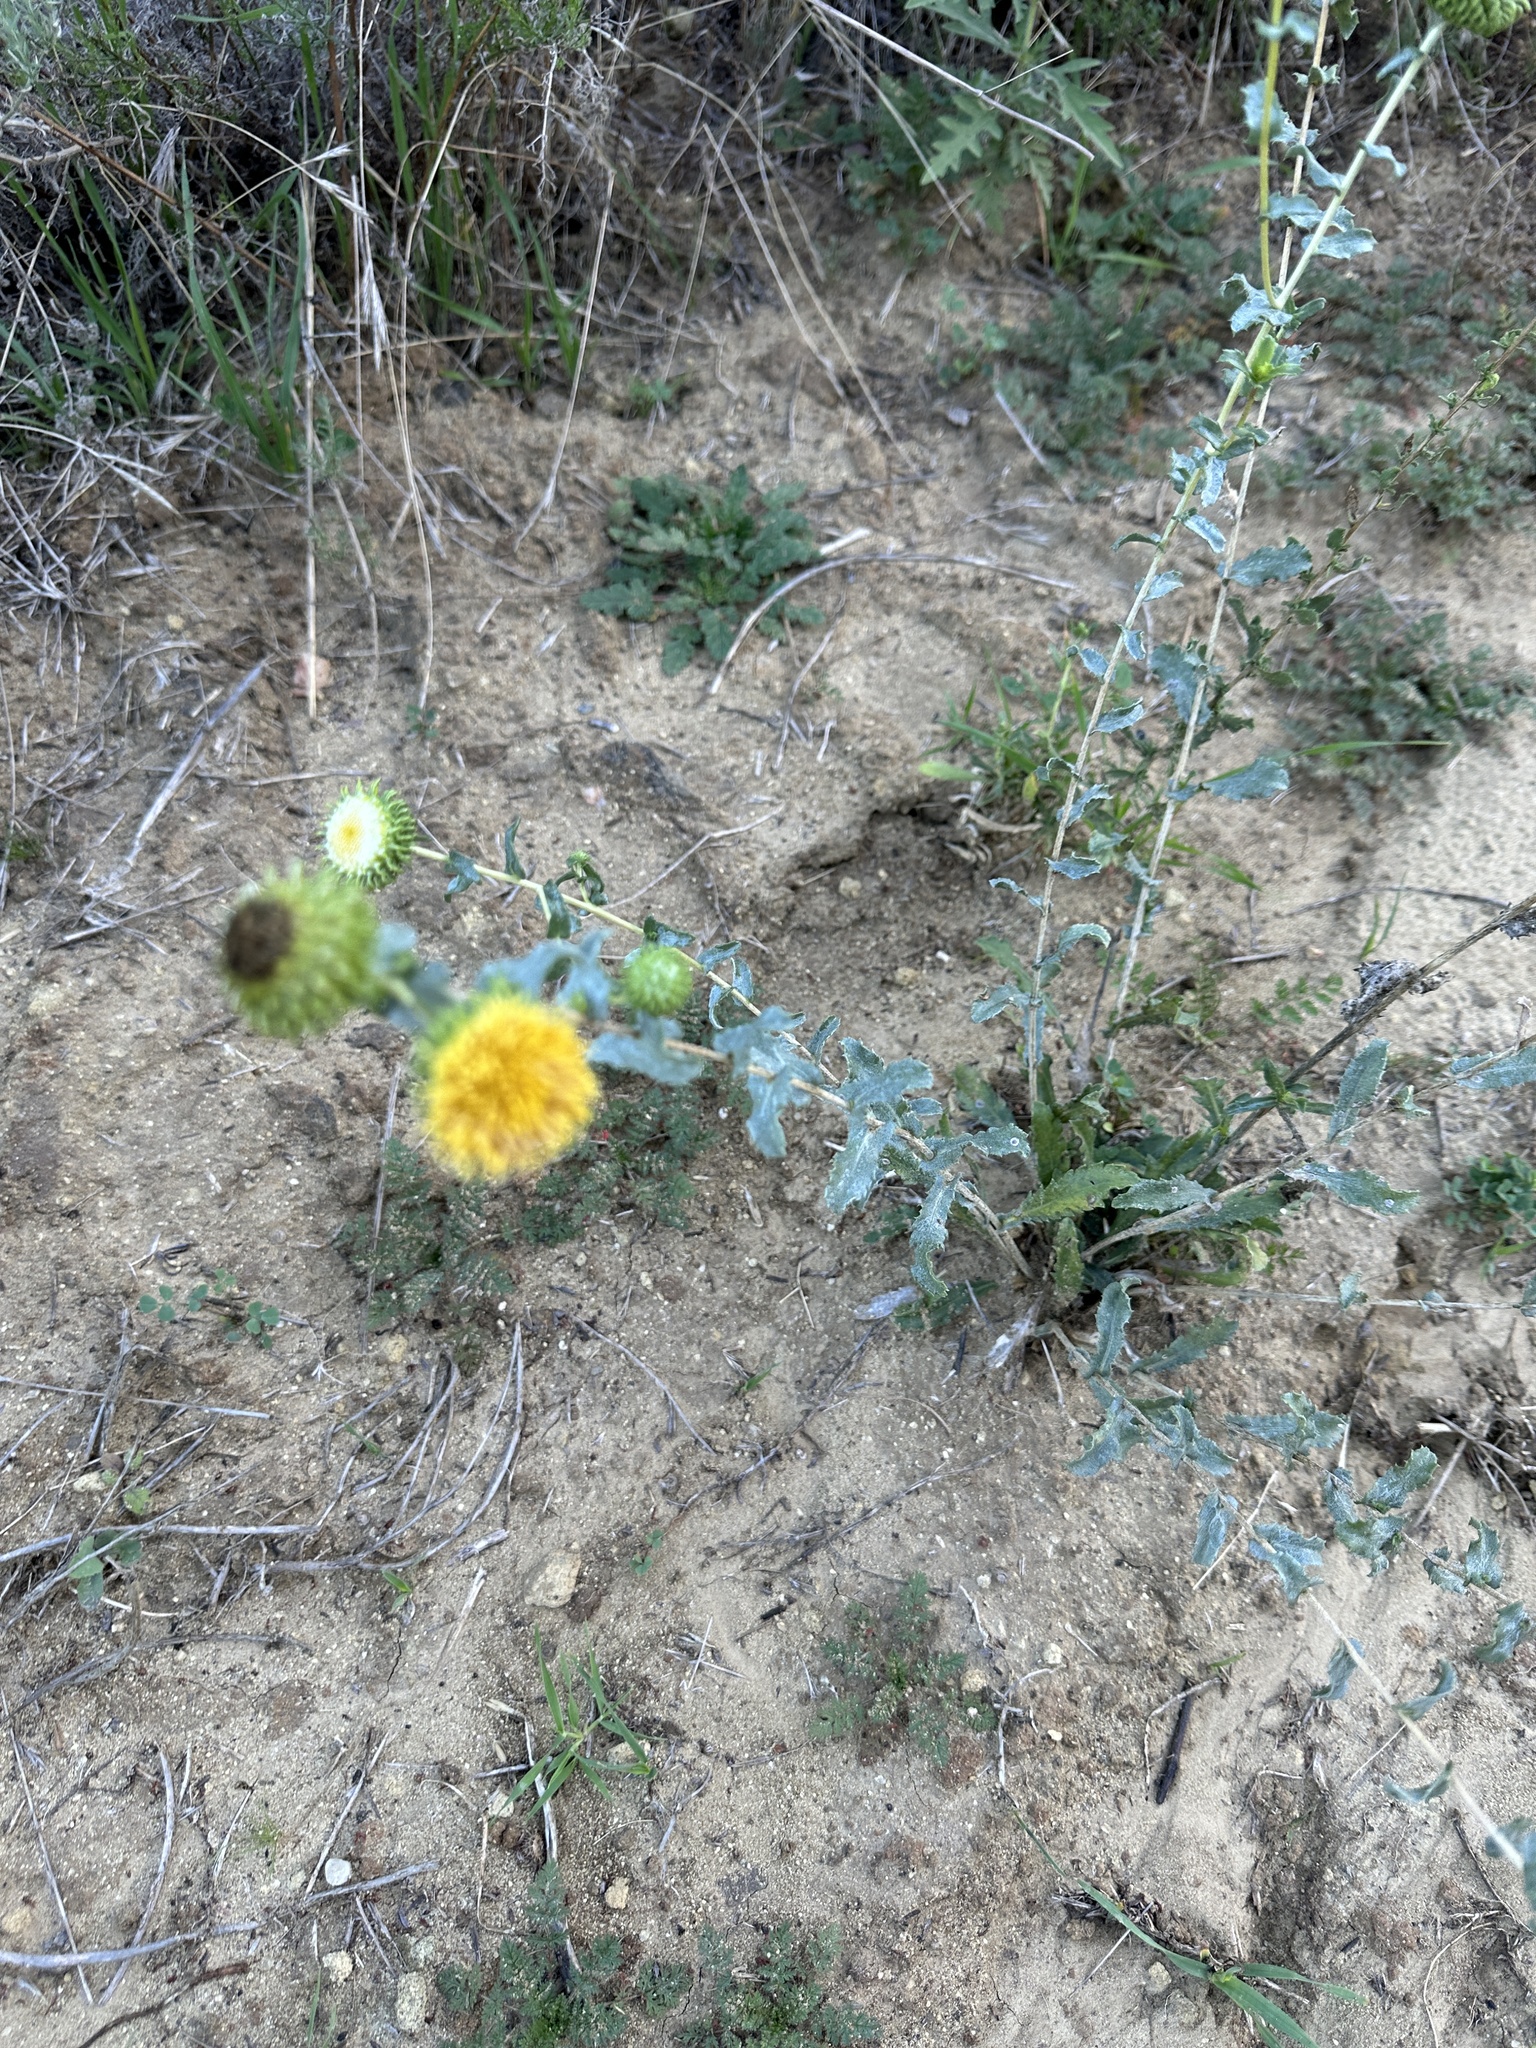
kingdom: Plantae
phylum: Tracheophyta
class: Magnoliopsida
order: Asterales
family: Asteraceae
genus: Grindelia
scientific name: Grindelia hirsutula
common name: Hairy gumweed
